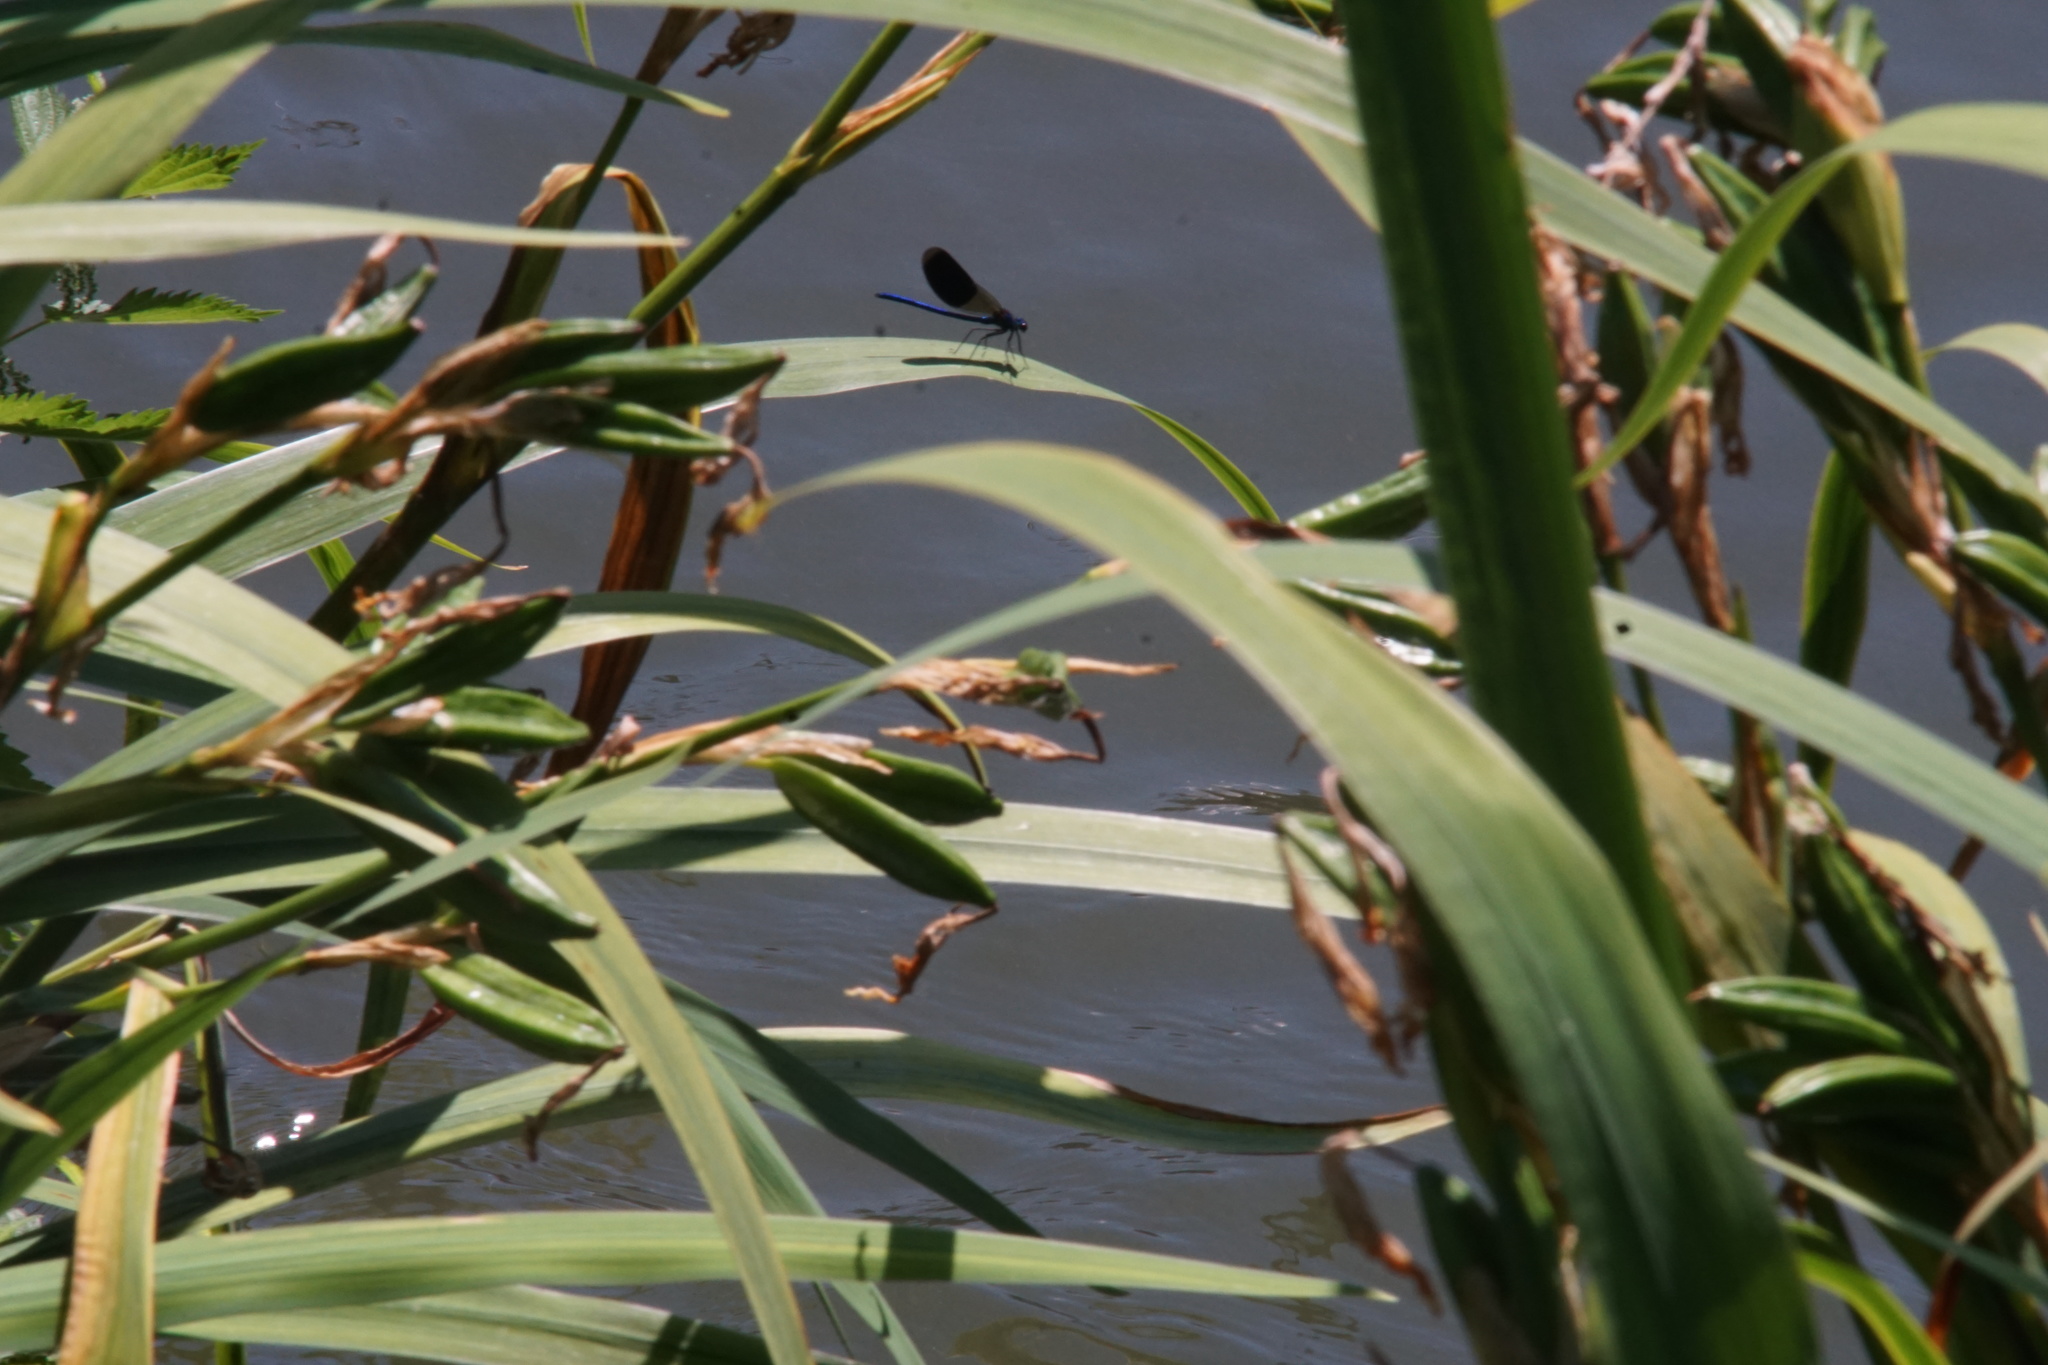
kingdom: Animalia
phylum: Arthropoda
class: Insecta
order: Odonata
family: Calopterygidae
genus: Calopteryx
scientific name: Calopteryx splendens
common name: Banded demoiselle
